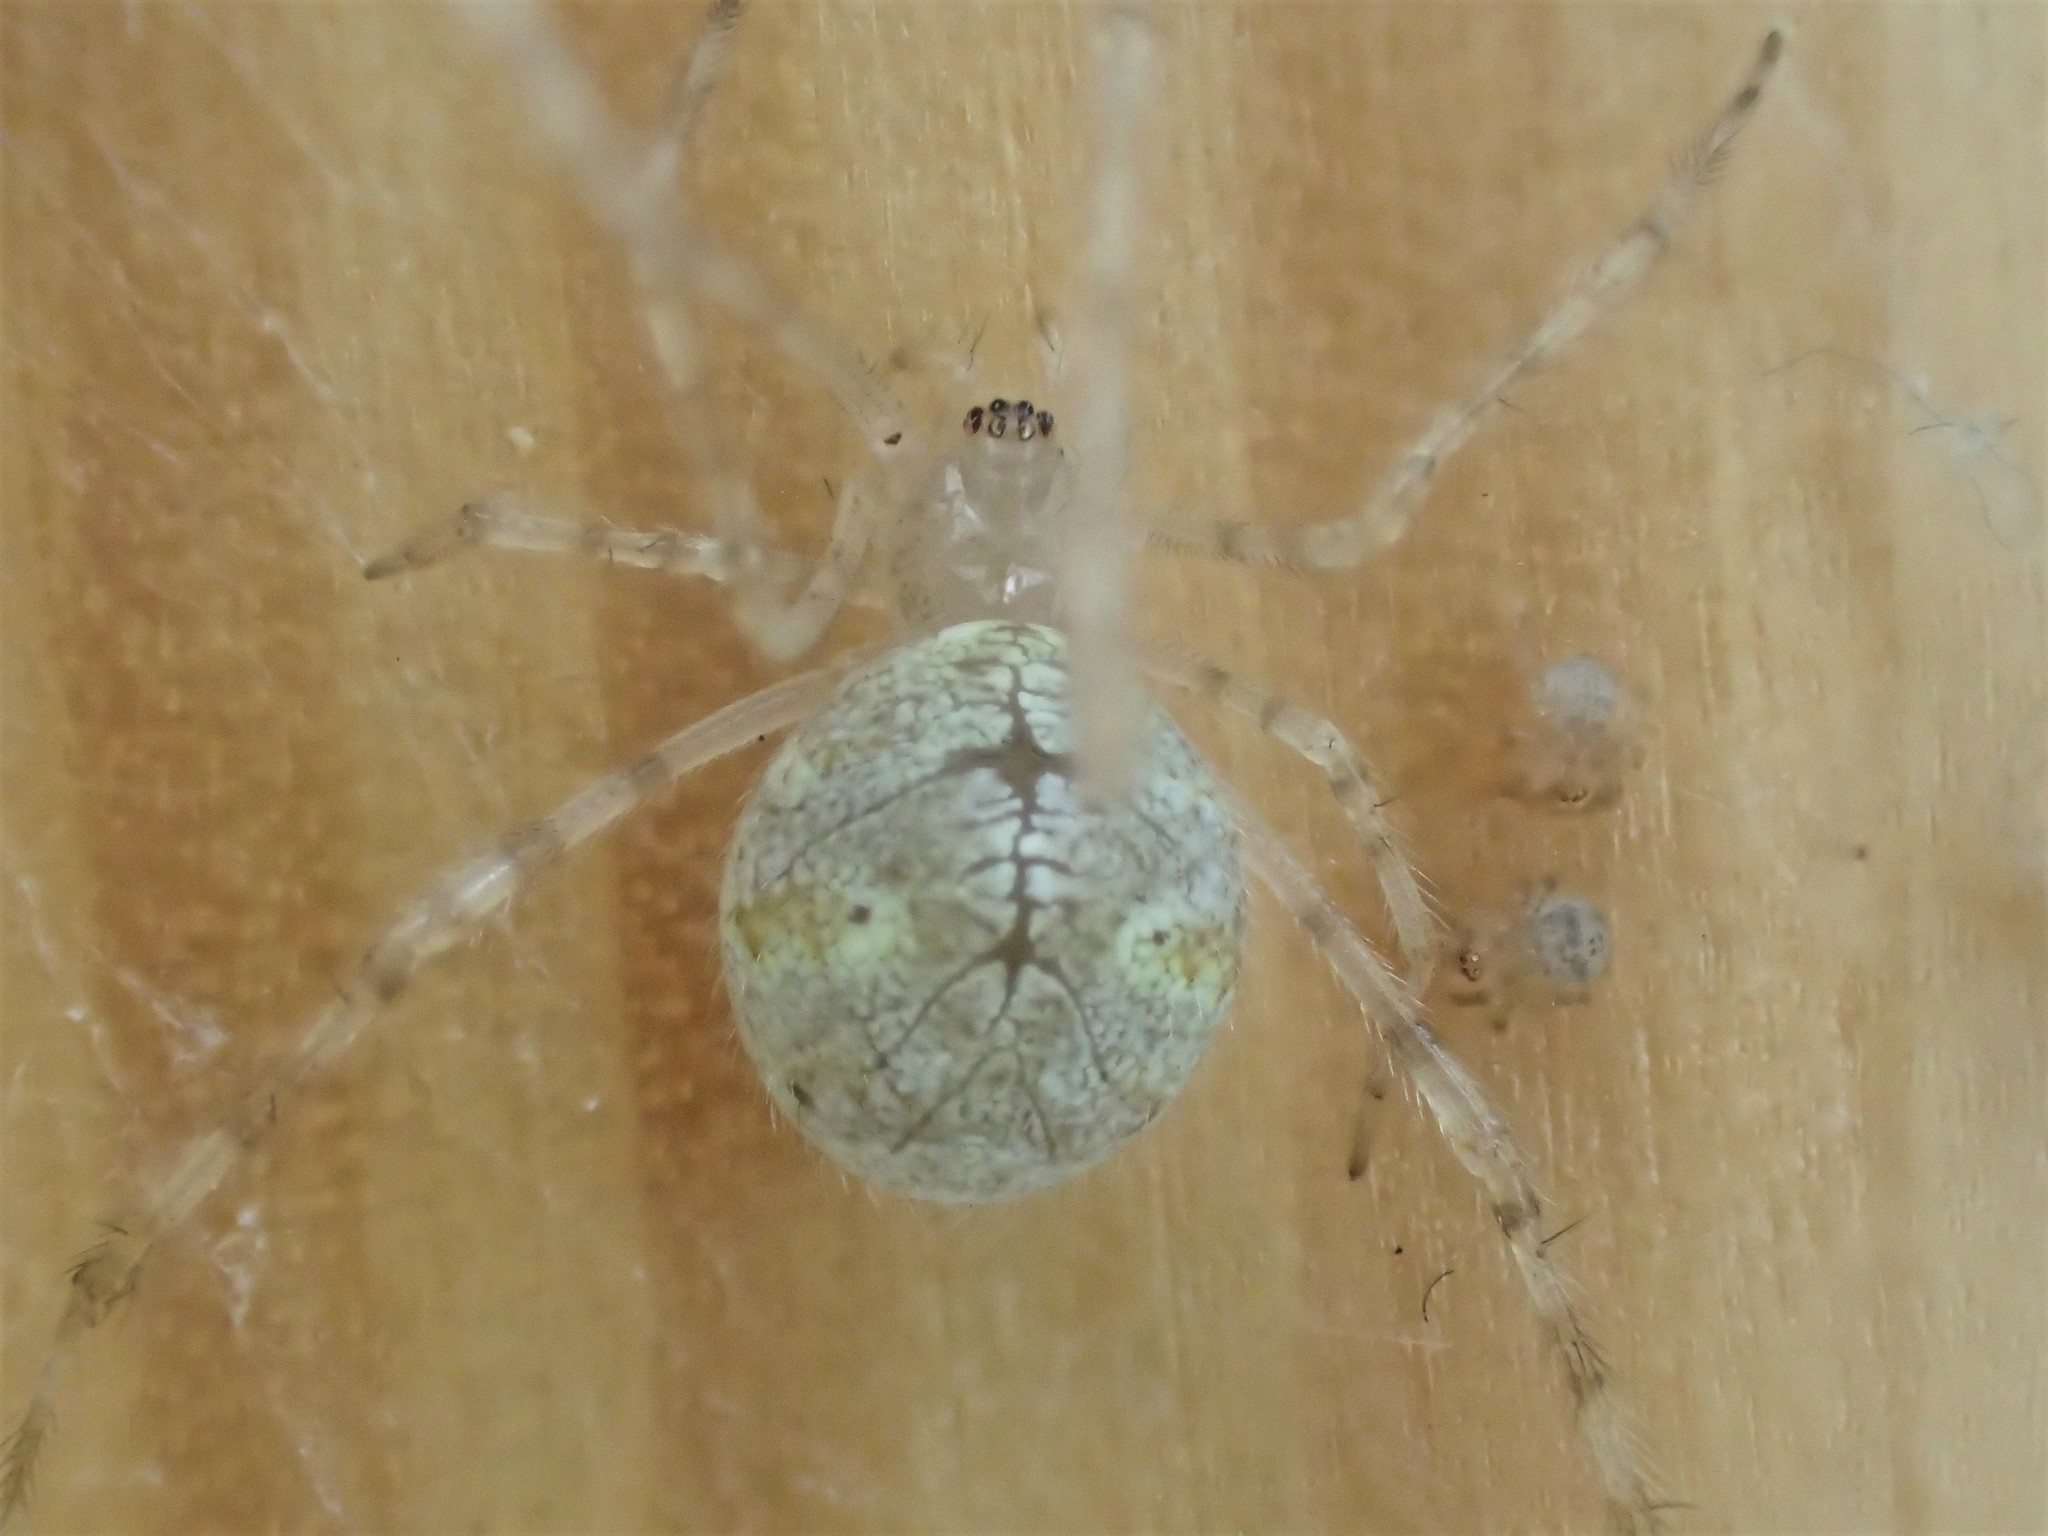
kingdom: Animalia
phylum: Arthropoda
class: Arachnida
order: Araneae
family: Theridiidae
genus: Cryptachaea
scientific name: Cryptachaea gigantipes
